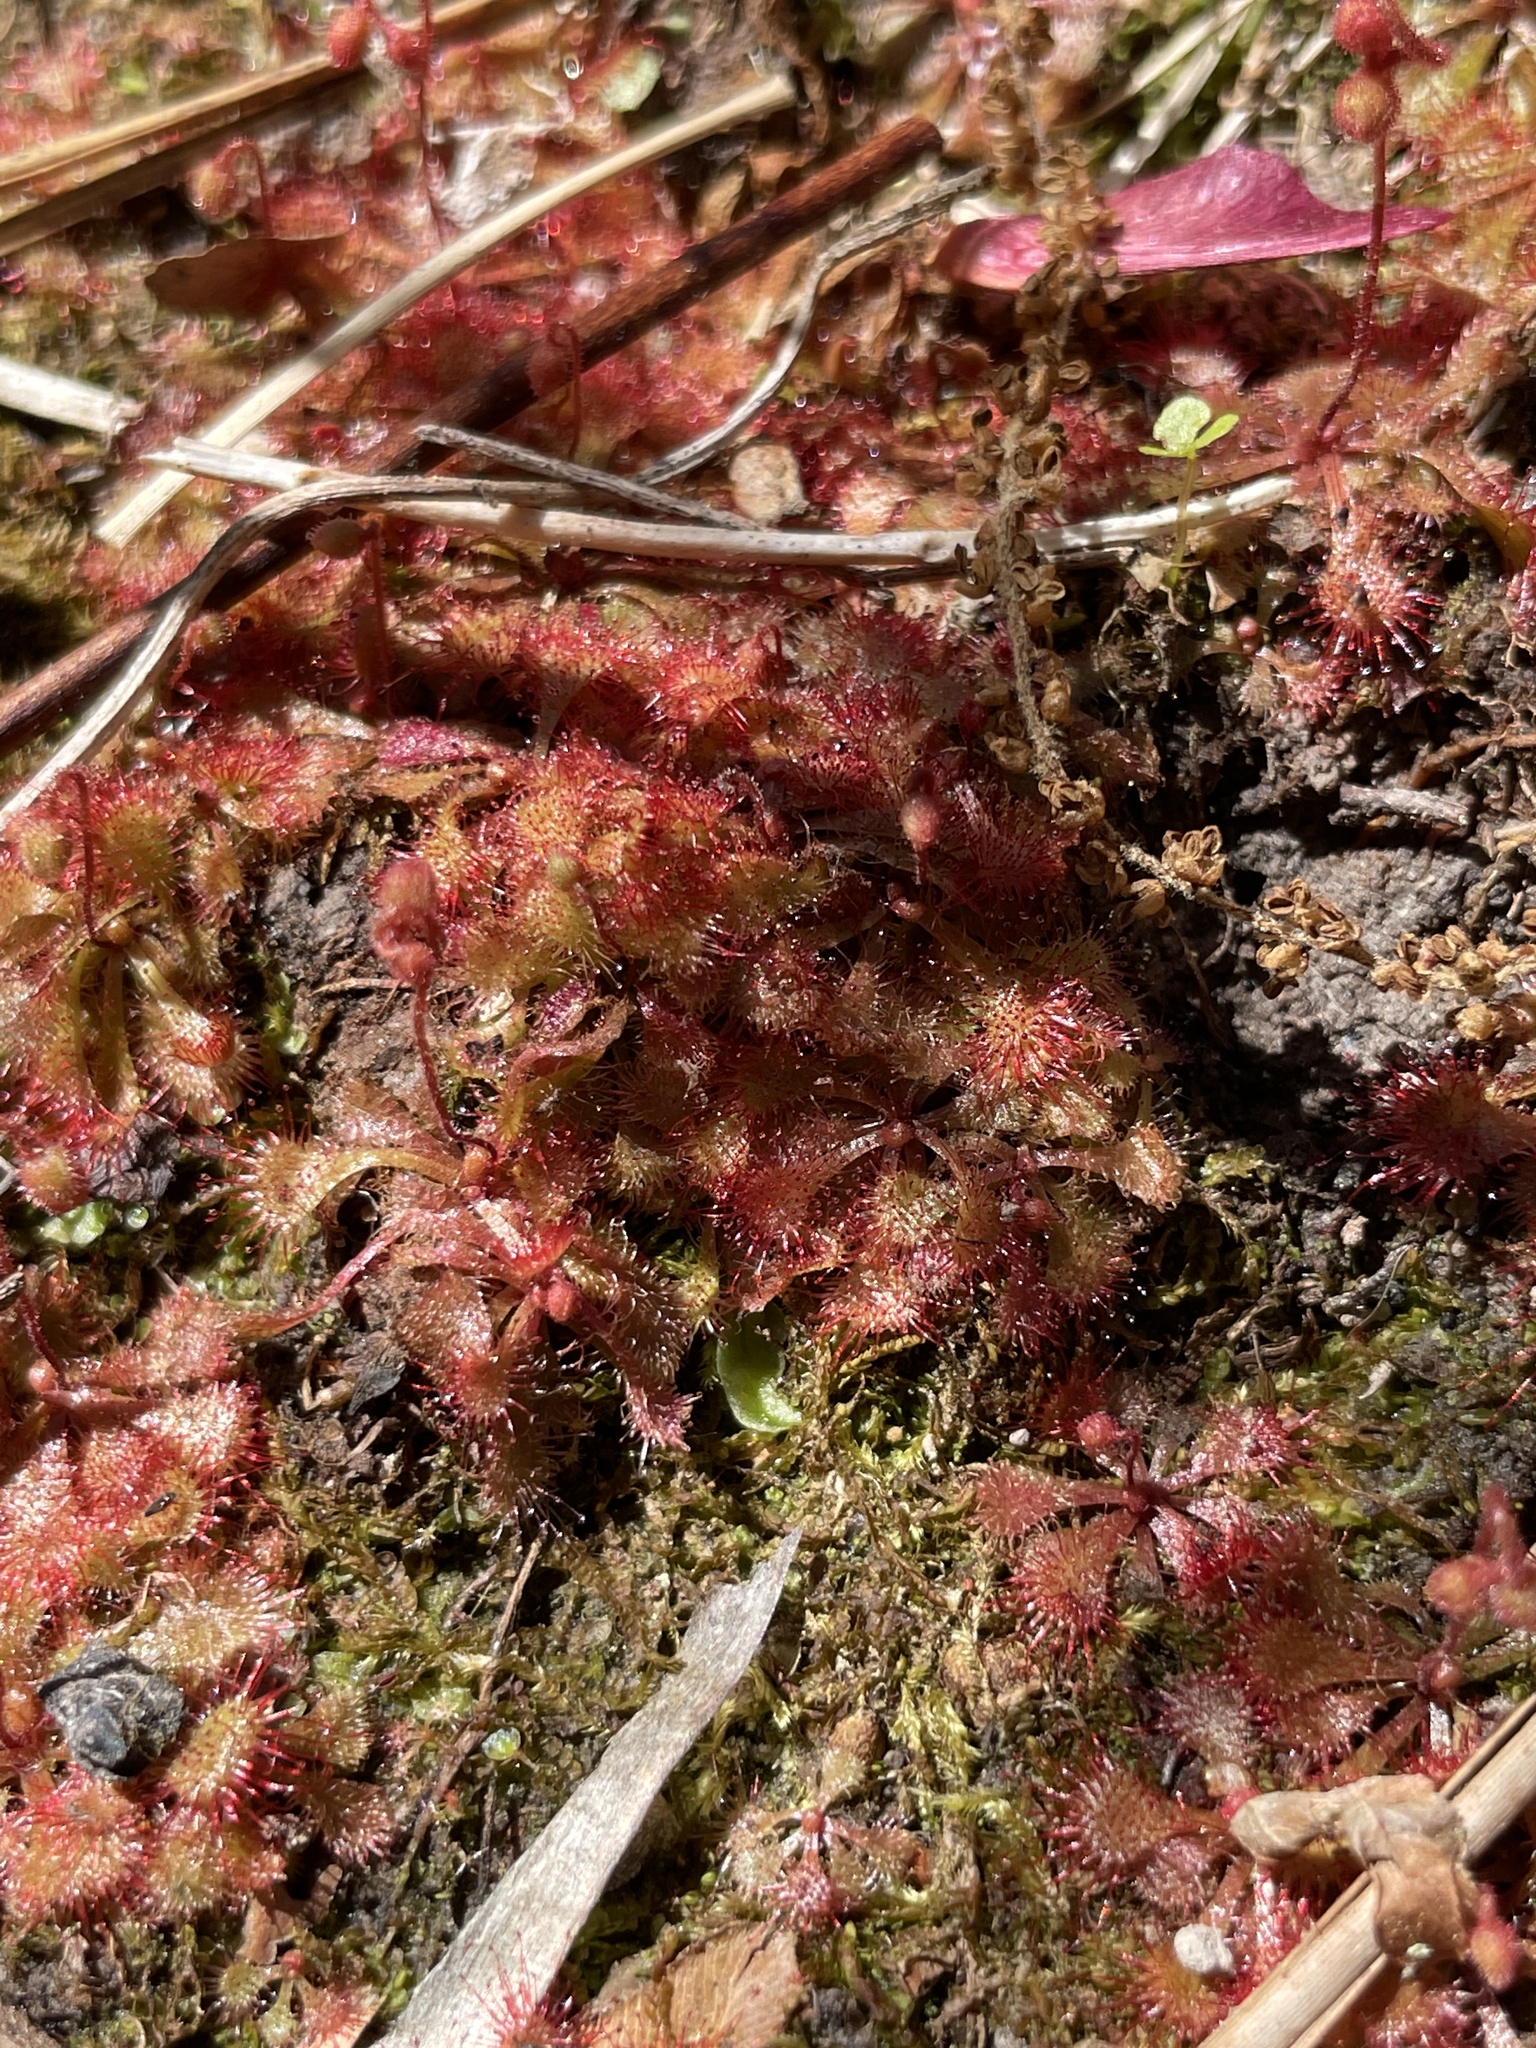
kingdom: Plantae
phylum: Tracheophyta
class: Magnoliopsida
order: Caryophyllales
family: Droseraceae
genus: Drosera
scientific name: Drosera brevifolia
